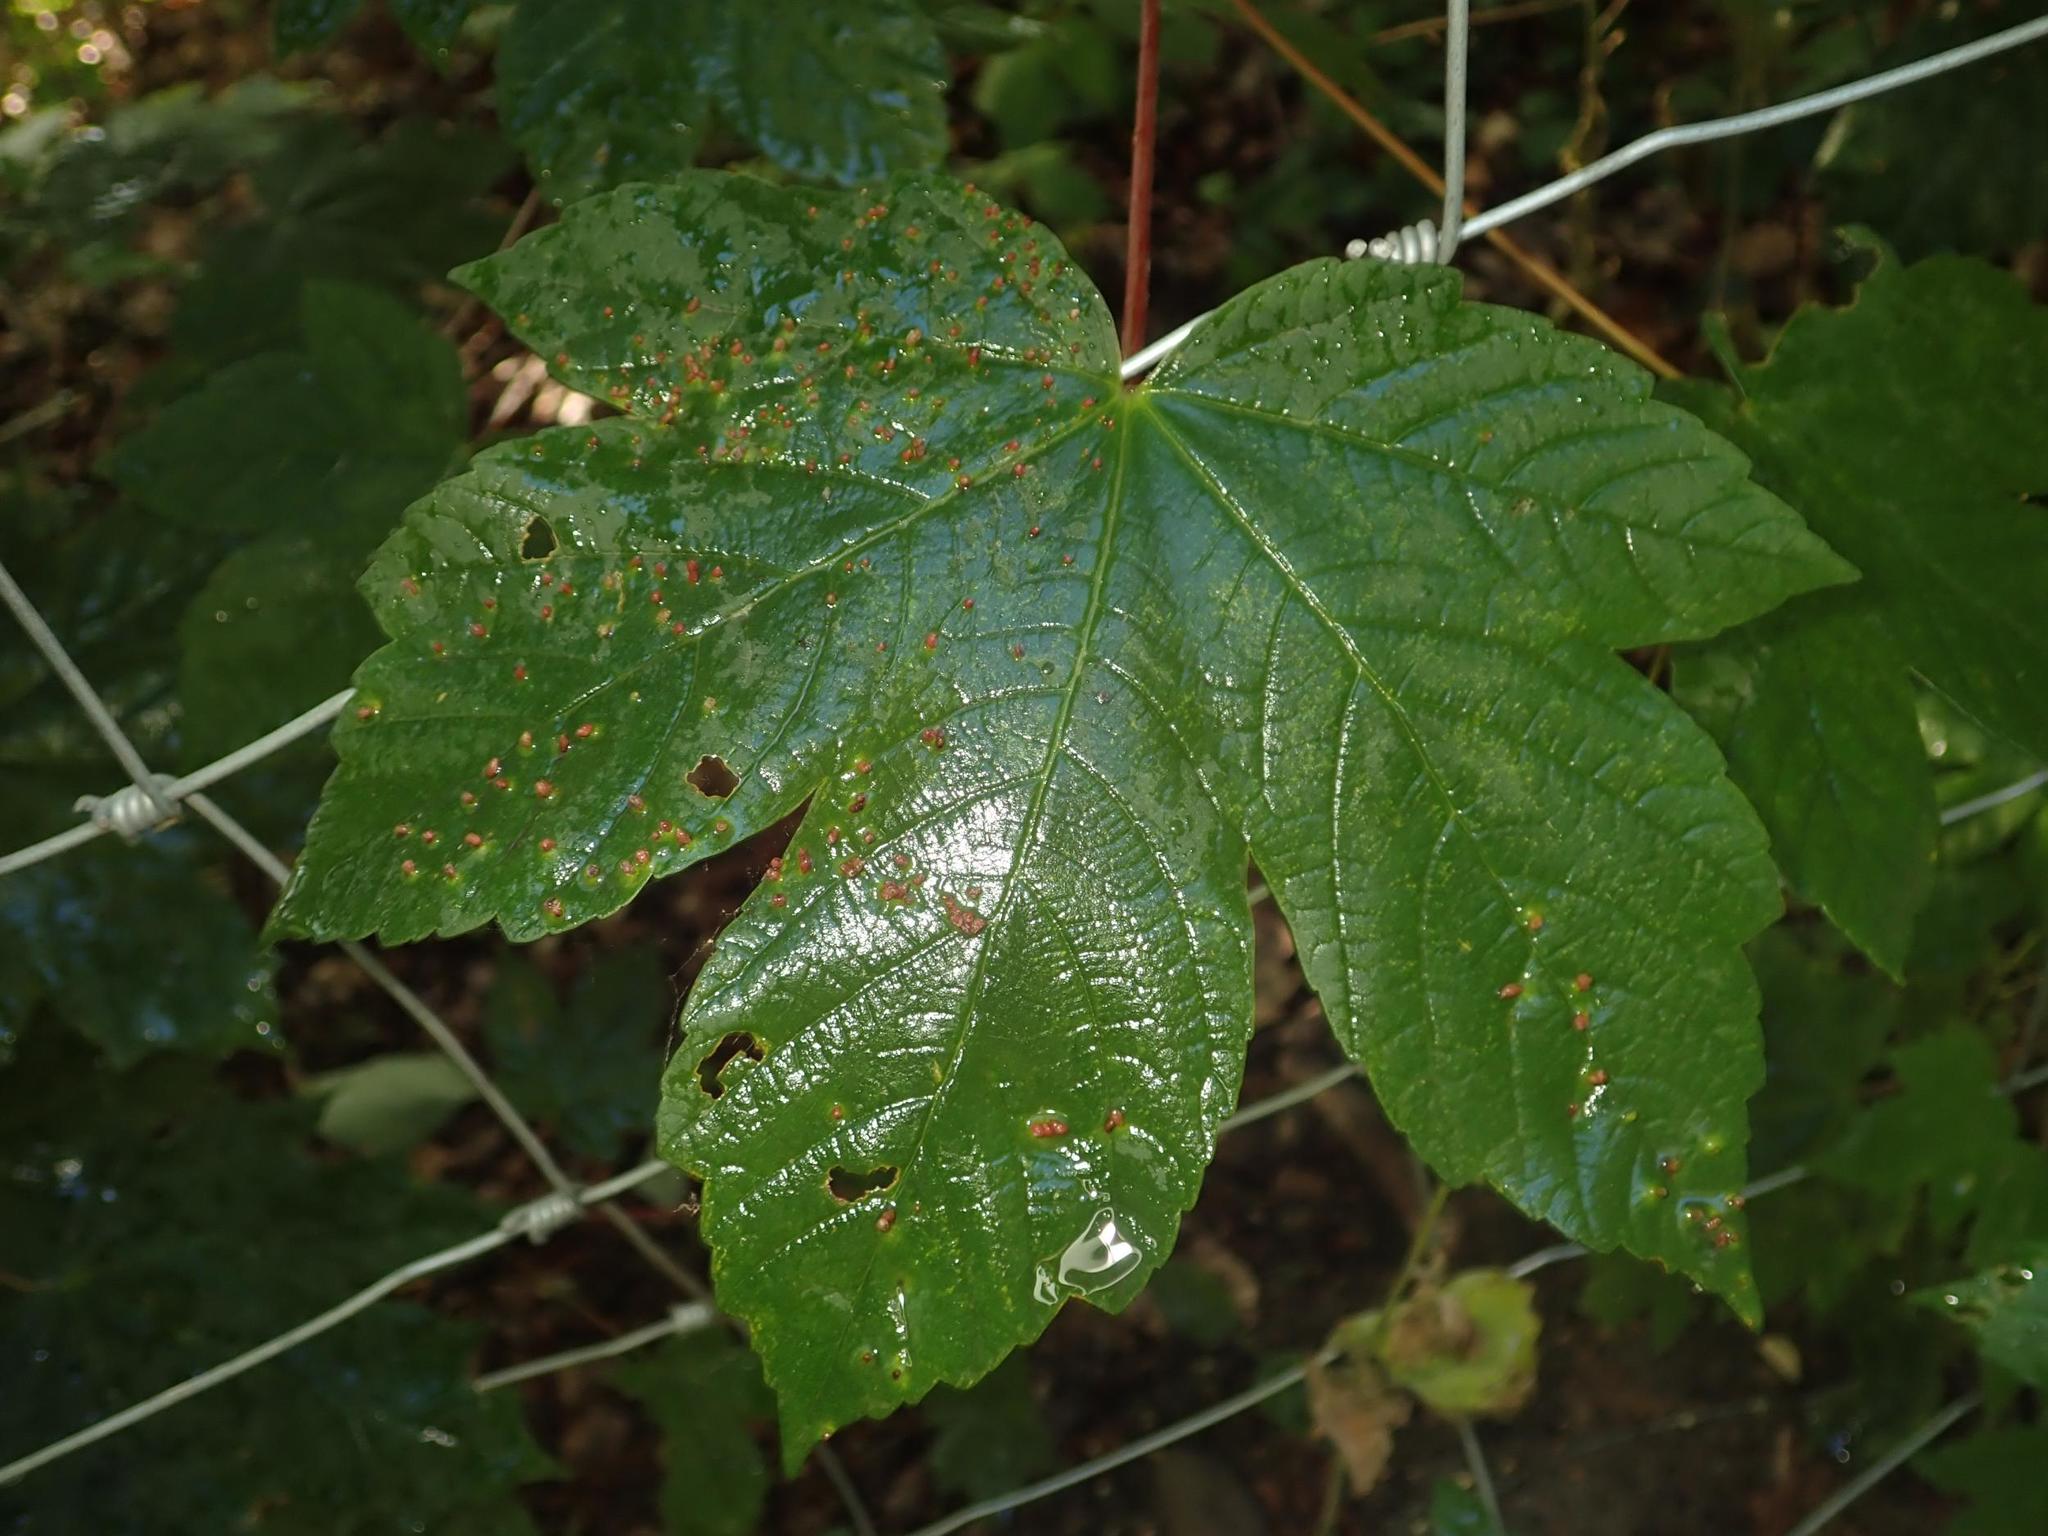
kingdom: Plantae
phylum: Tracheophyta
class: Magnoliopsida
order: Sapindales
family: Sapindaceae
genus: Acer
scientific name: Acer pseudoplatanus
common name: Sycamore
